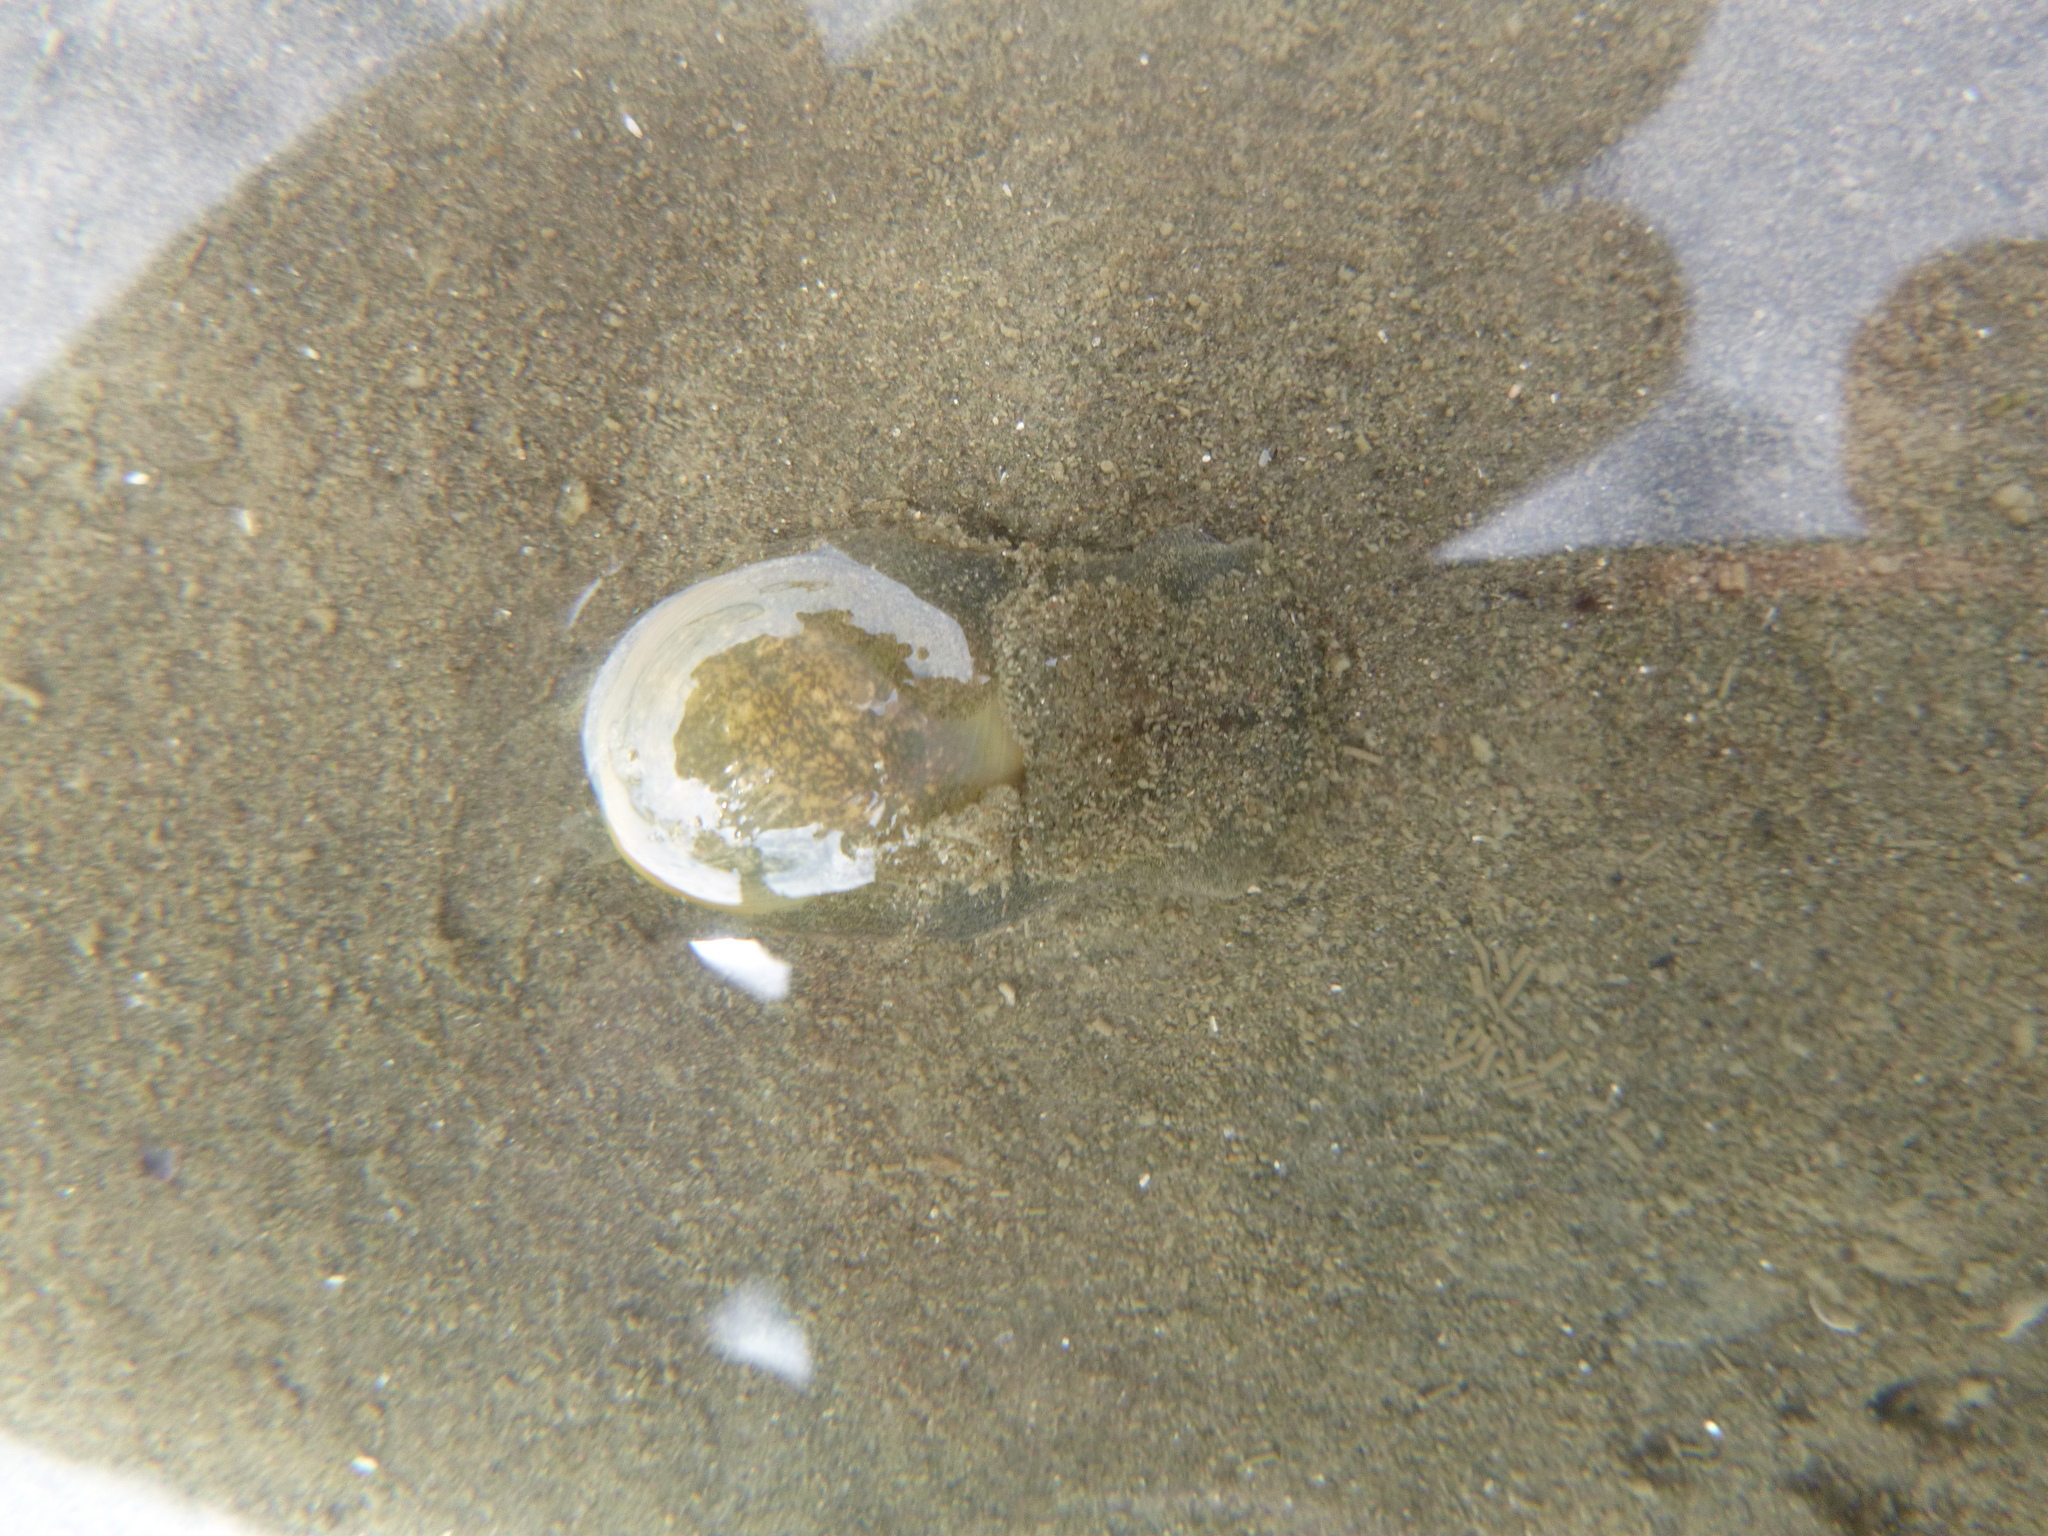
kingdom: Animalia
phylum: Mollusca
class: Gastropoda
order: Cephalaspidea
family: Haminoeidae
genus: Papawera
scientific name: Papawera zelandiae
